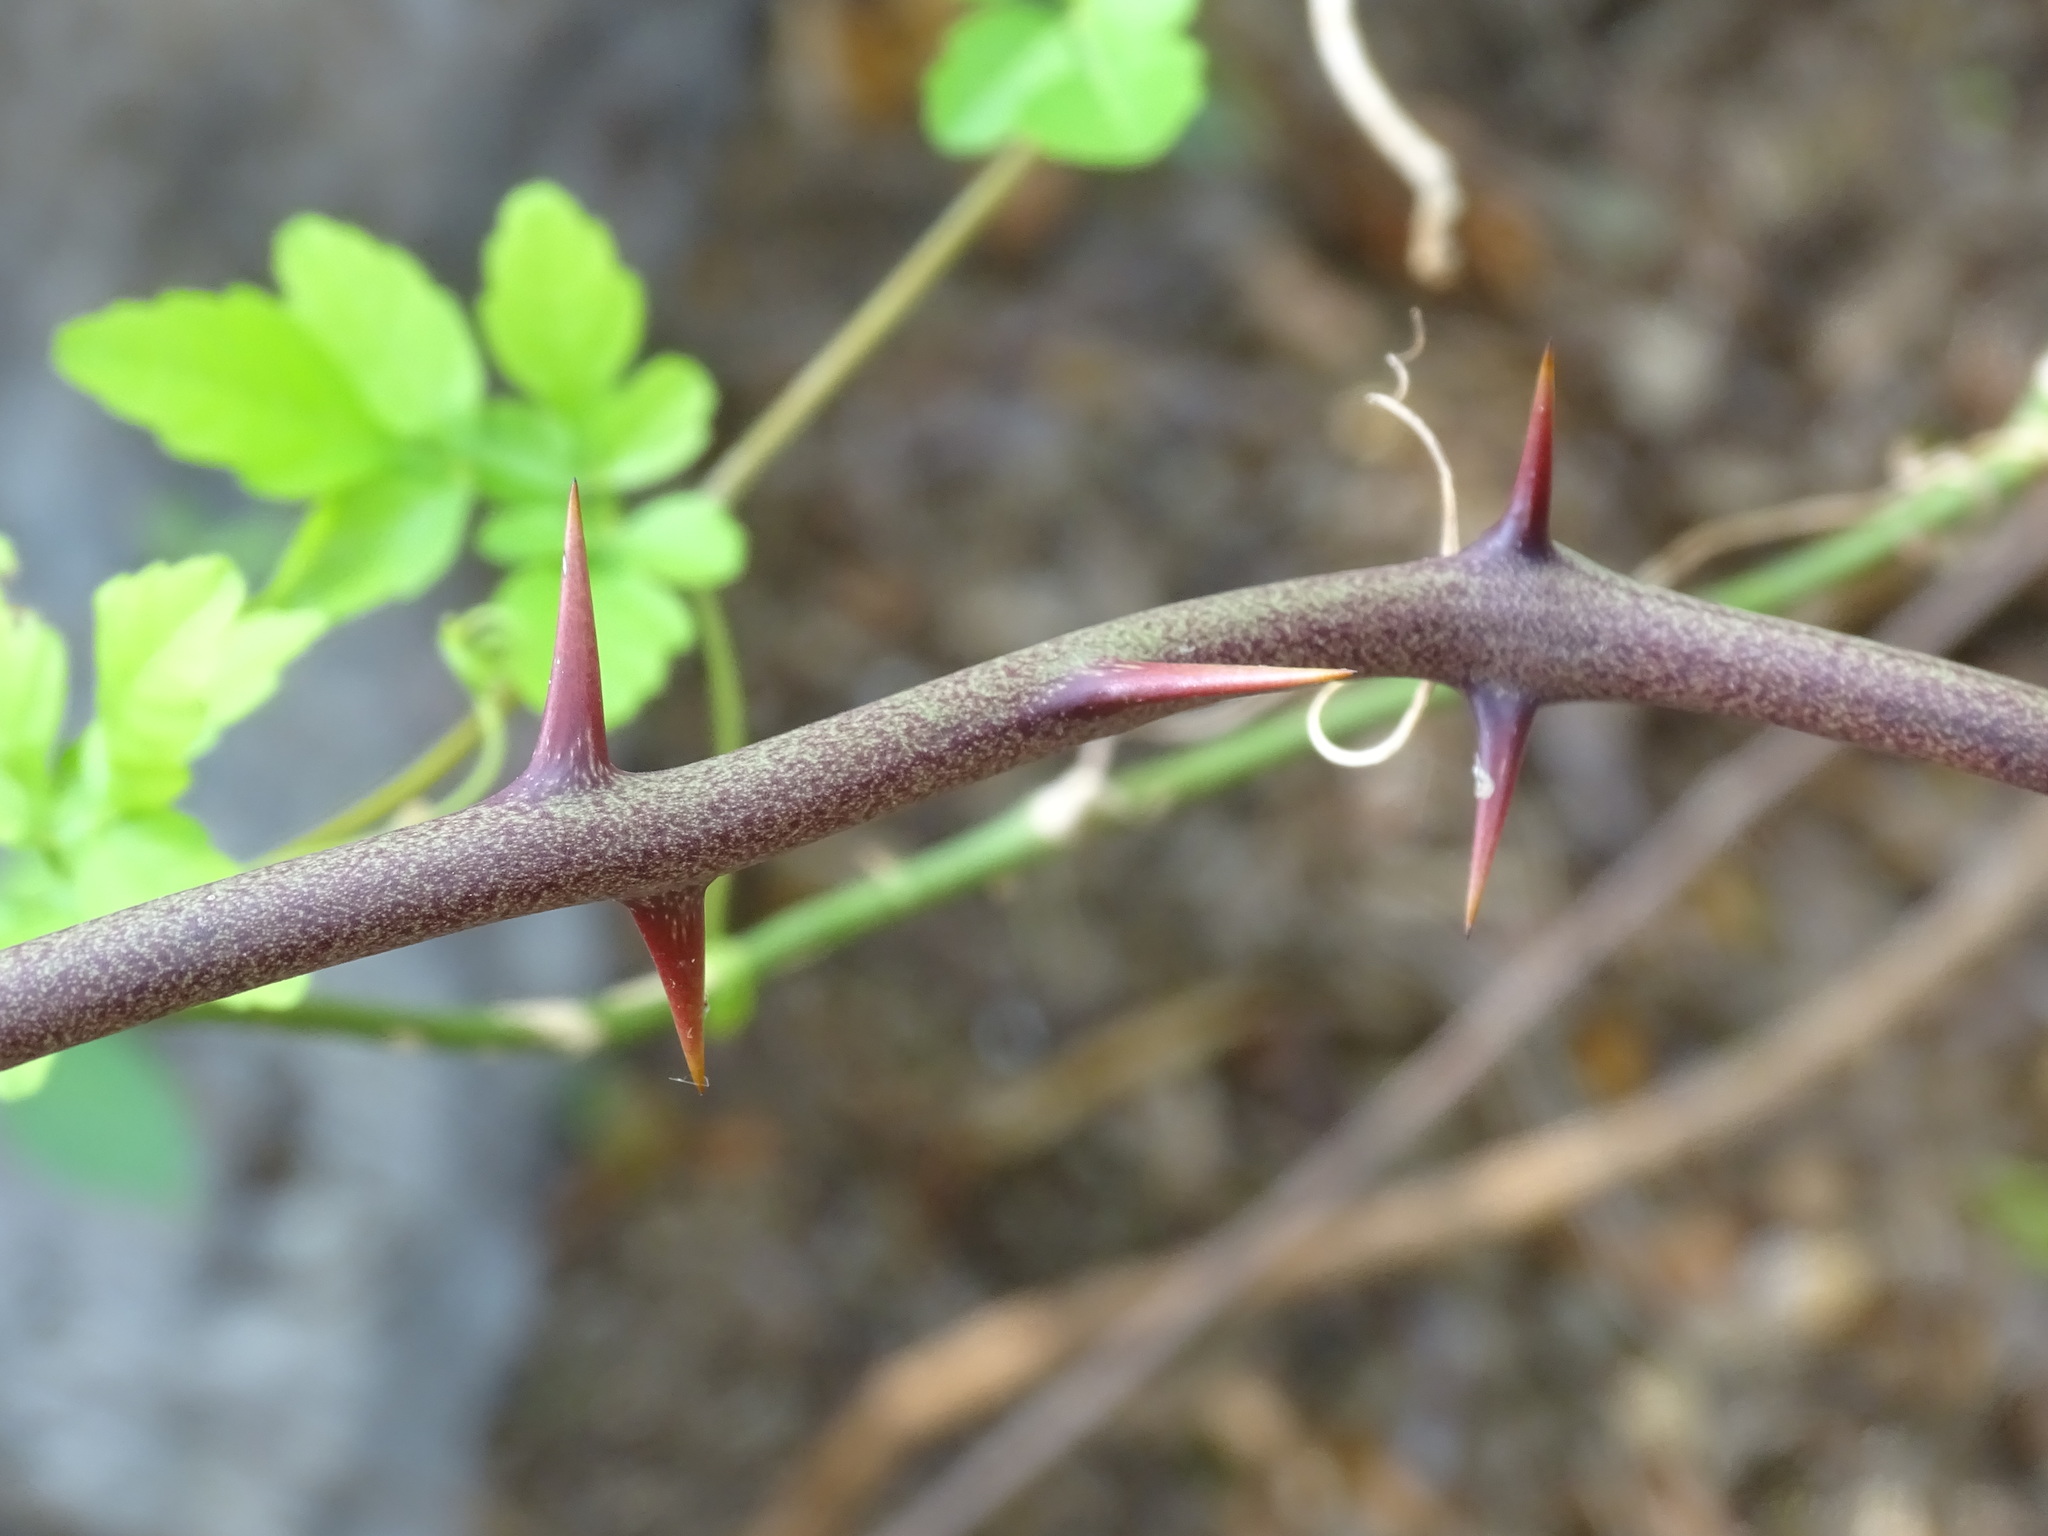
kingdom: Plantae
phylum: Tracheophyta
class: Liliopsida
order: Liliales
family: Smilacaceae
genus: Smilax
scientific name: Smilax spinosa
